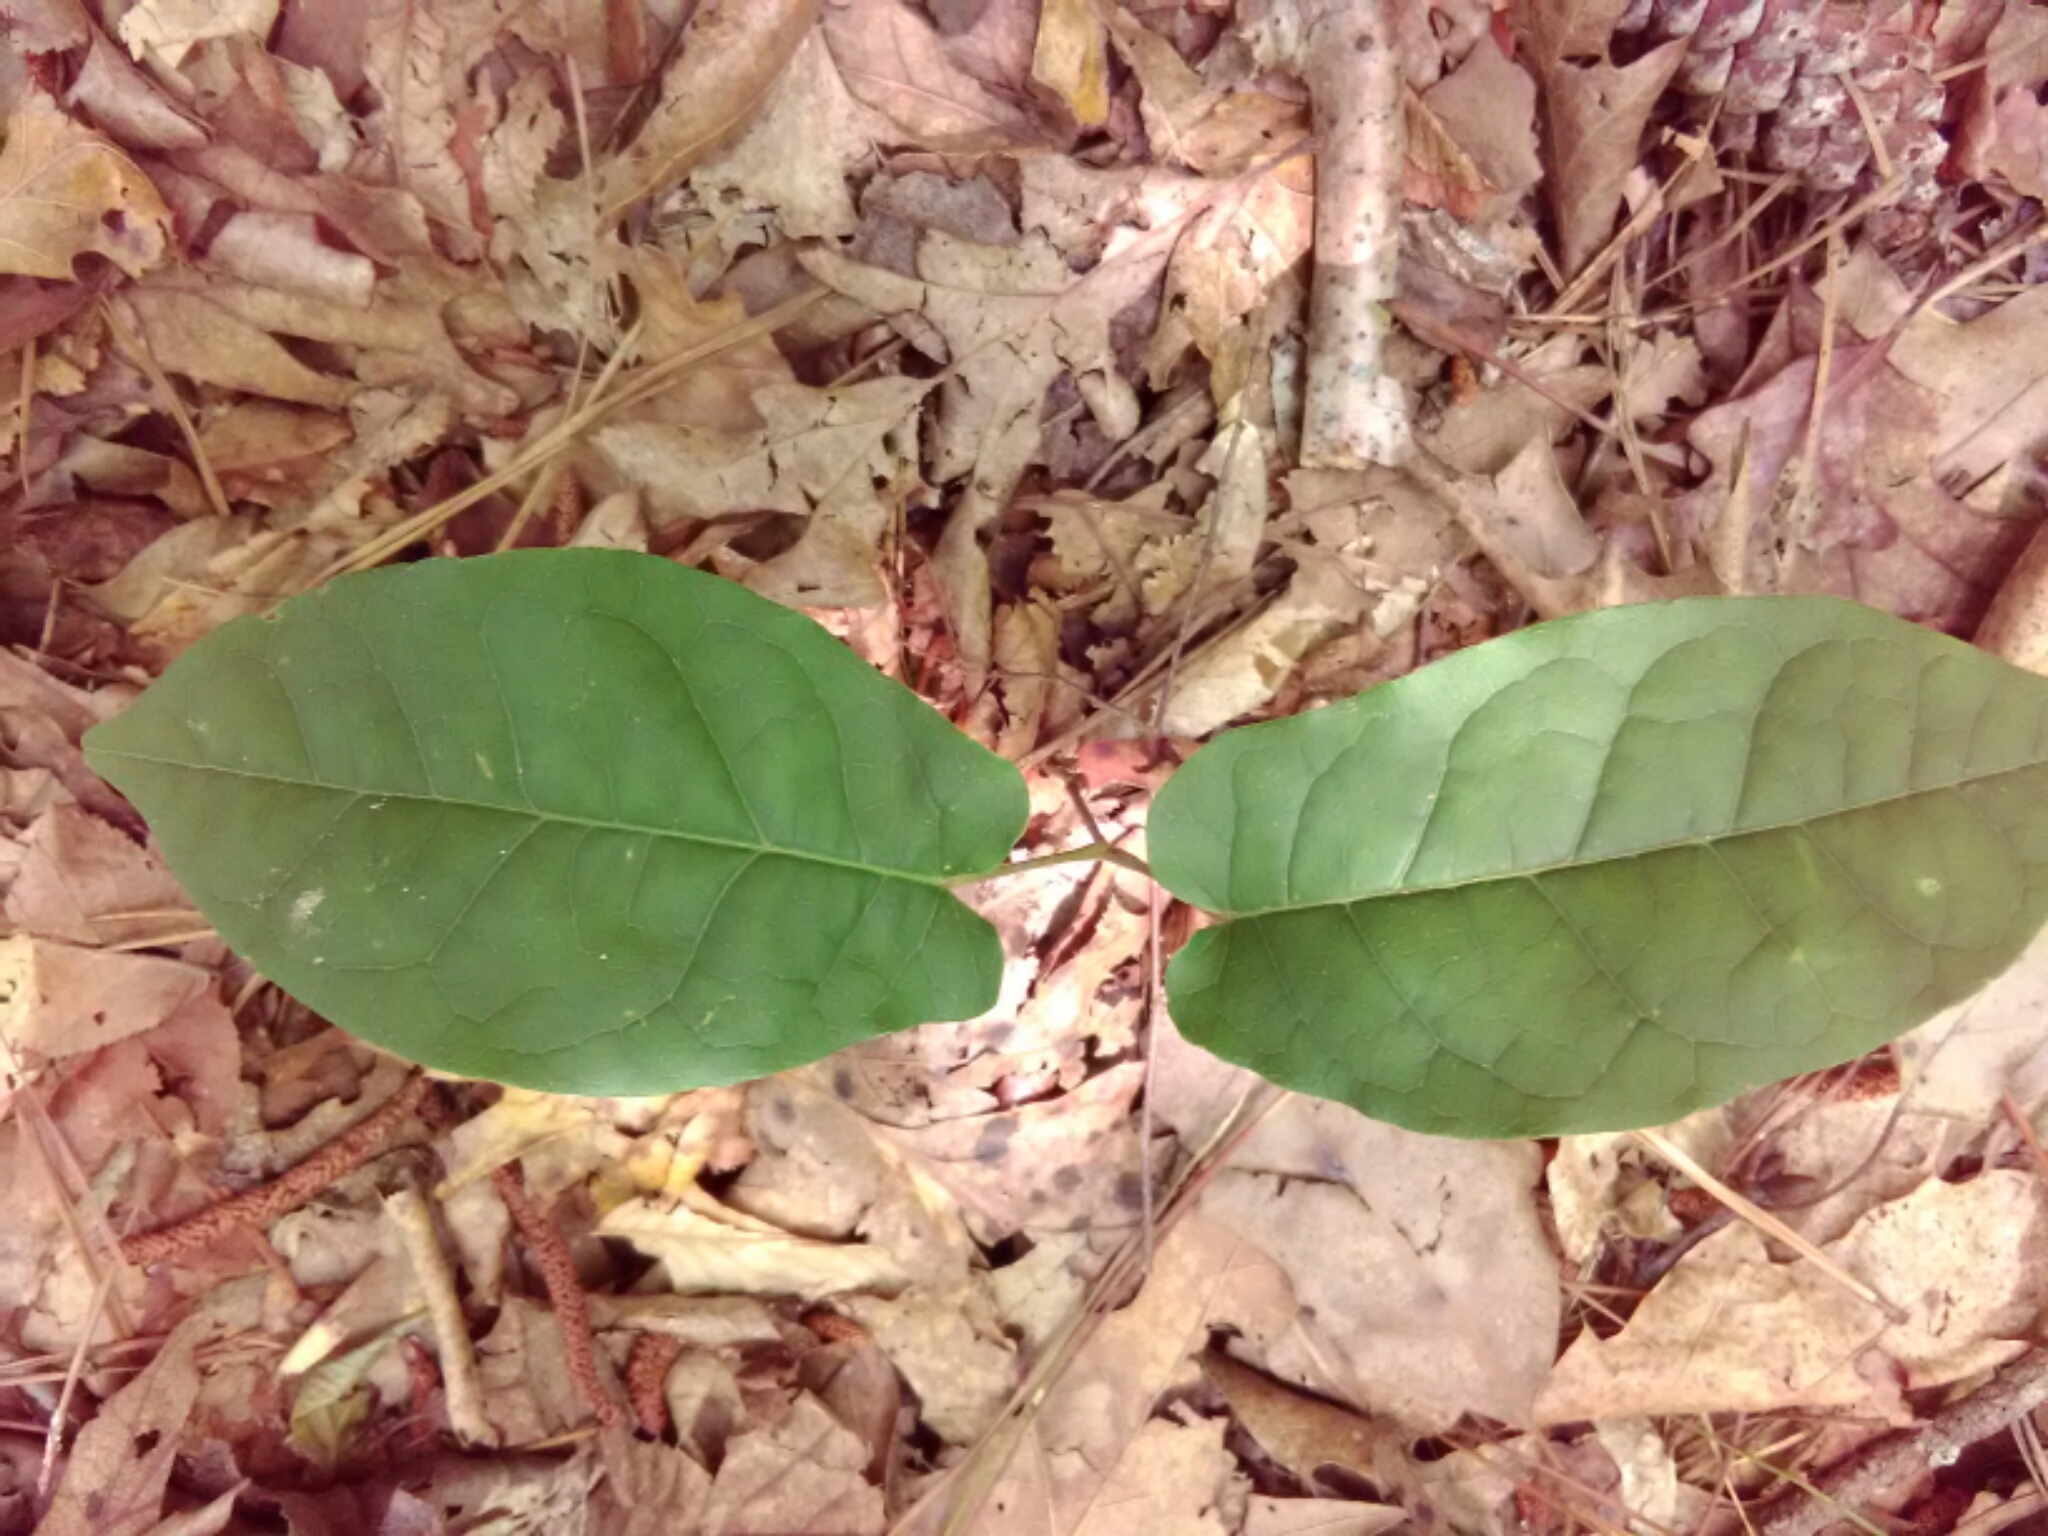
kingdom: Plantae
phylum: Tracheophyta
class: Magnoliopsida
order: Lamiales
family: Bignoniaceae
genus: Bignonia
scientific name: Bignonia capreolata
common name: Crossvine
